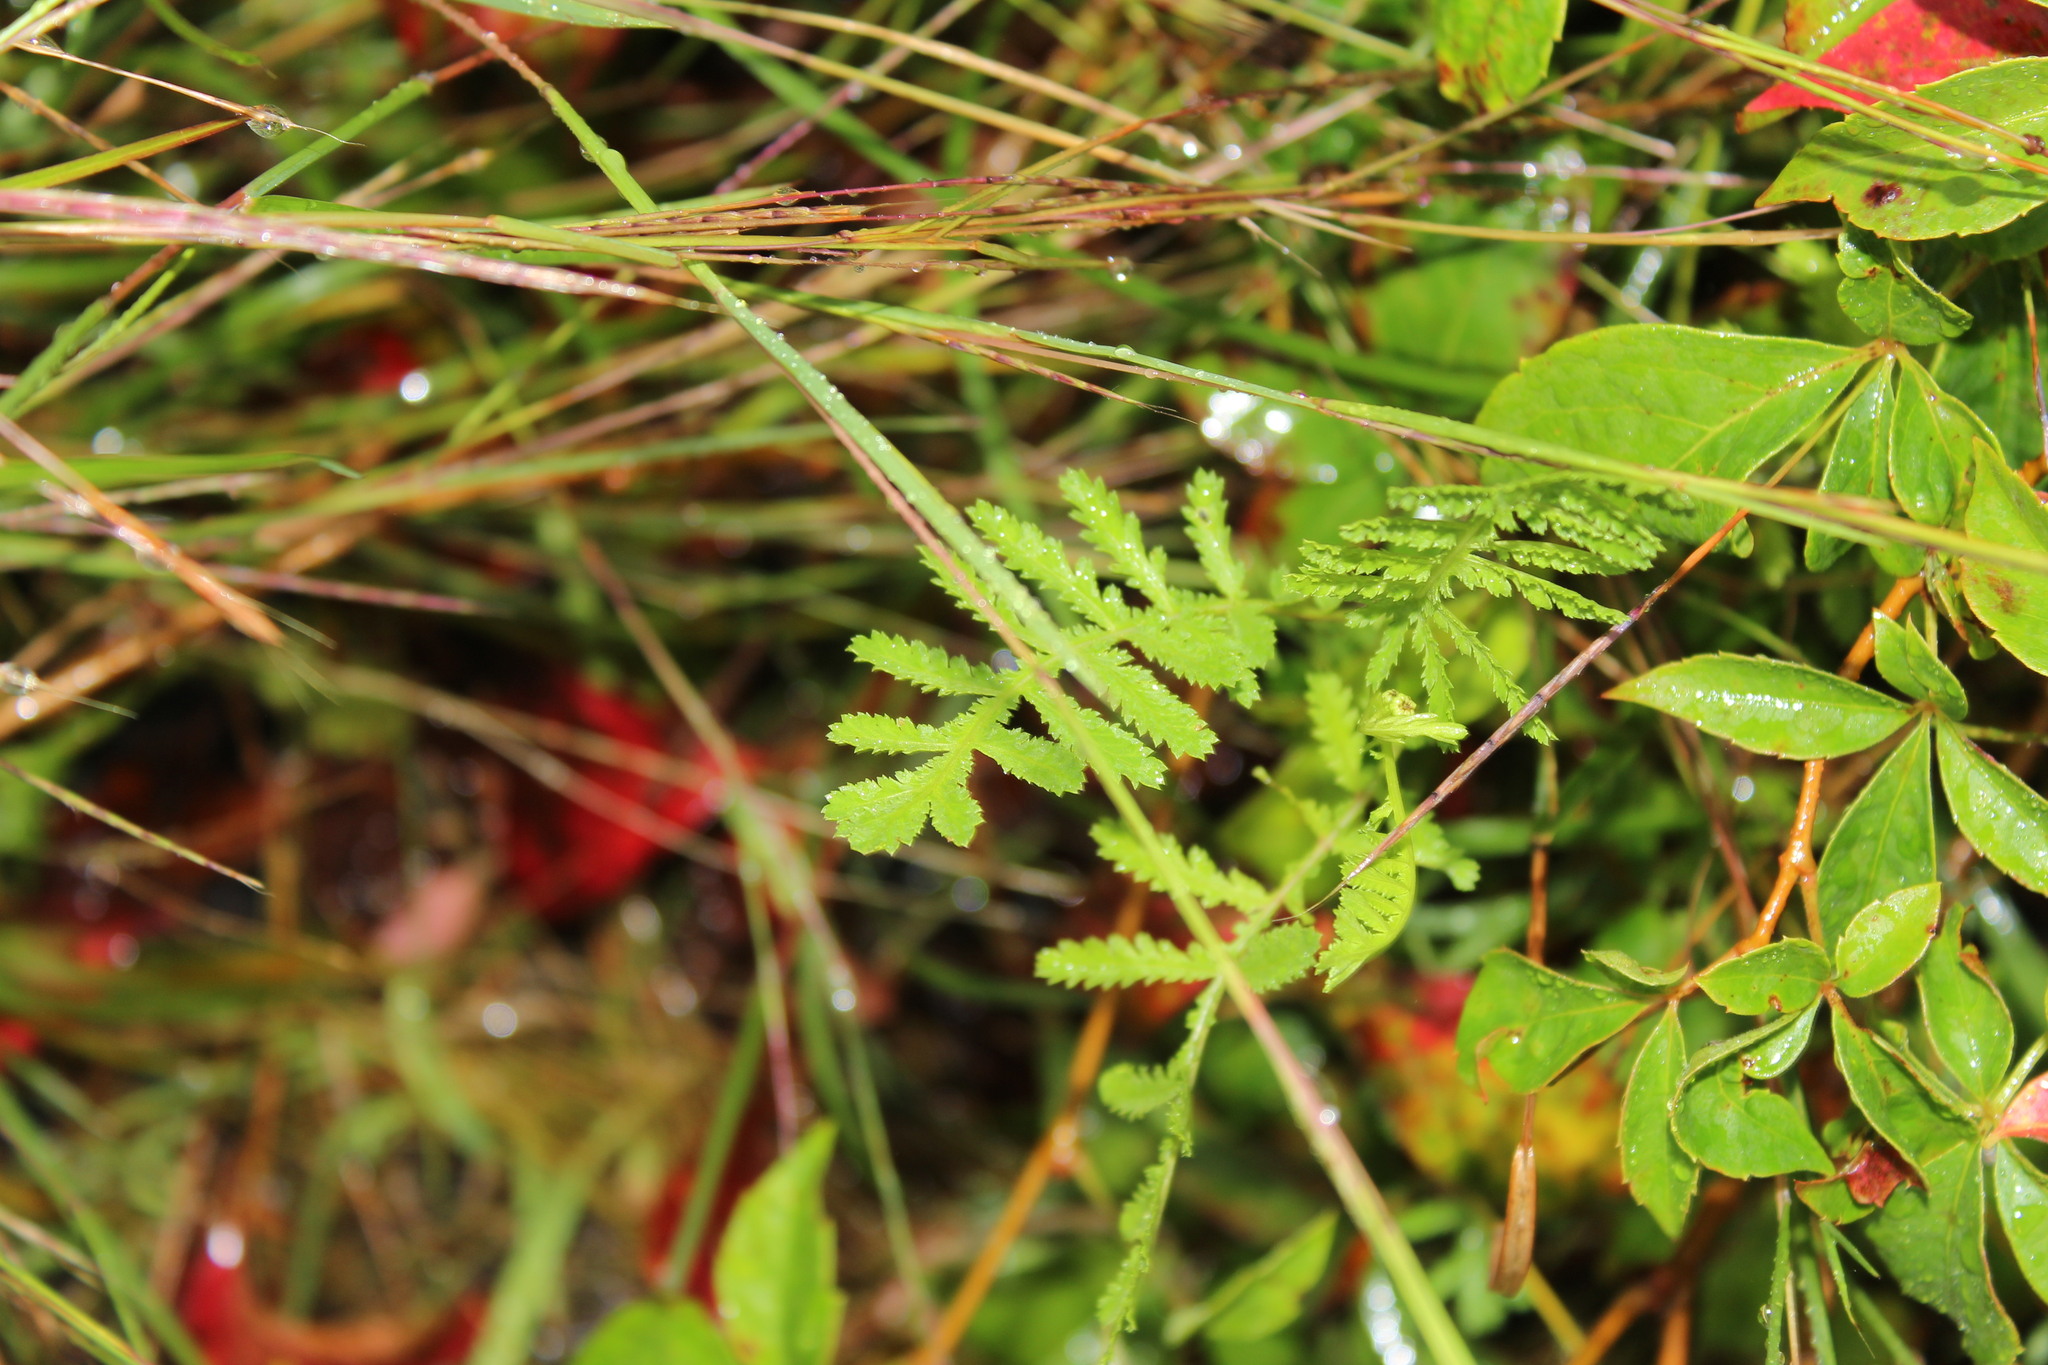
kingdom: Plantae
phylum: Tracheophyta
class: Magnoliopsida
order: Asterales
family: Asteraceae
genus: Tanacetum
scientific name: Tanacetum vulgare
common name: Common tansy
